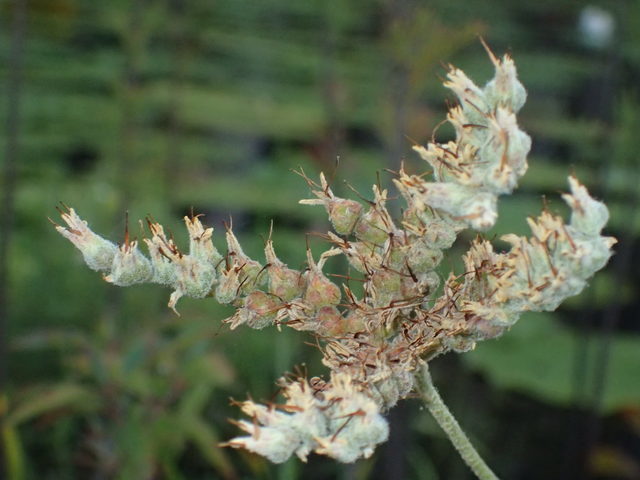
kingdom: Plantae
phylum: Tracheophyta
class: Liliopsida
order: Commelinales
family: Haemodoraceae
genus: Lachnanthes
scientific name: Lachnanthes caroliana
